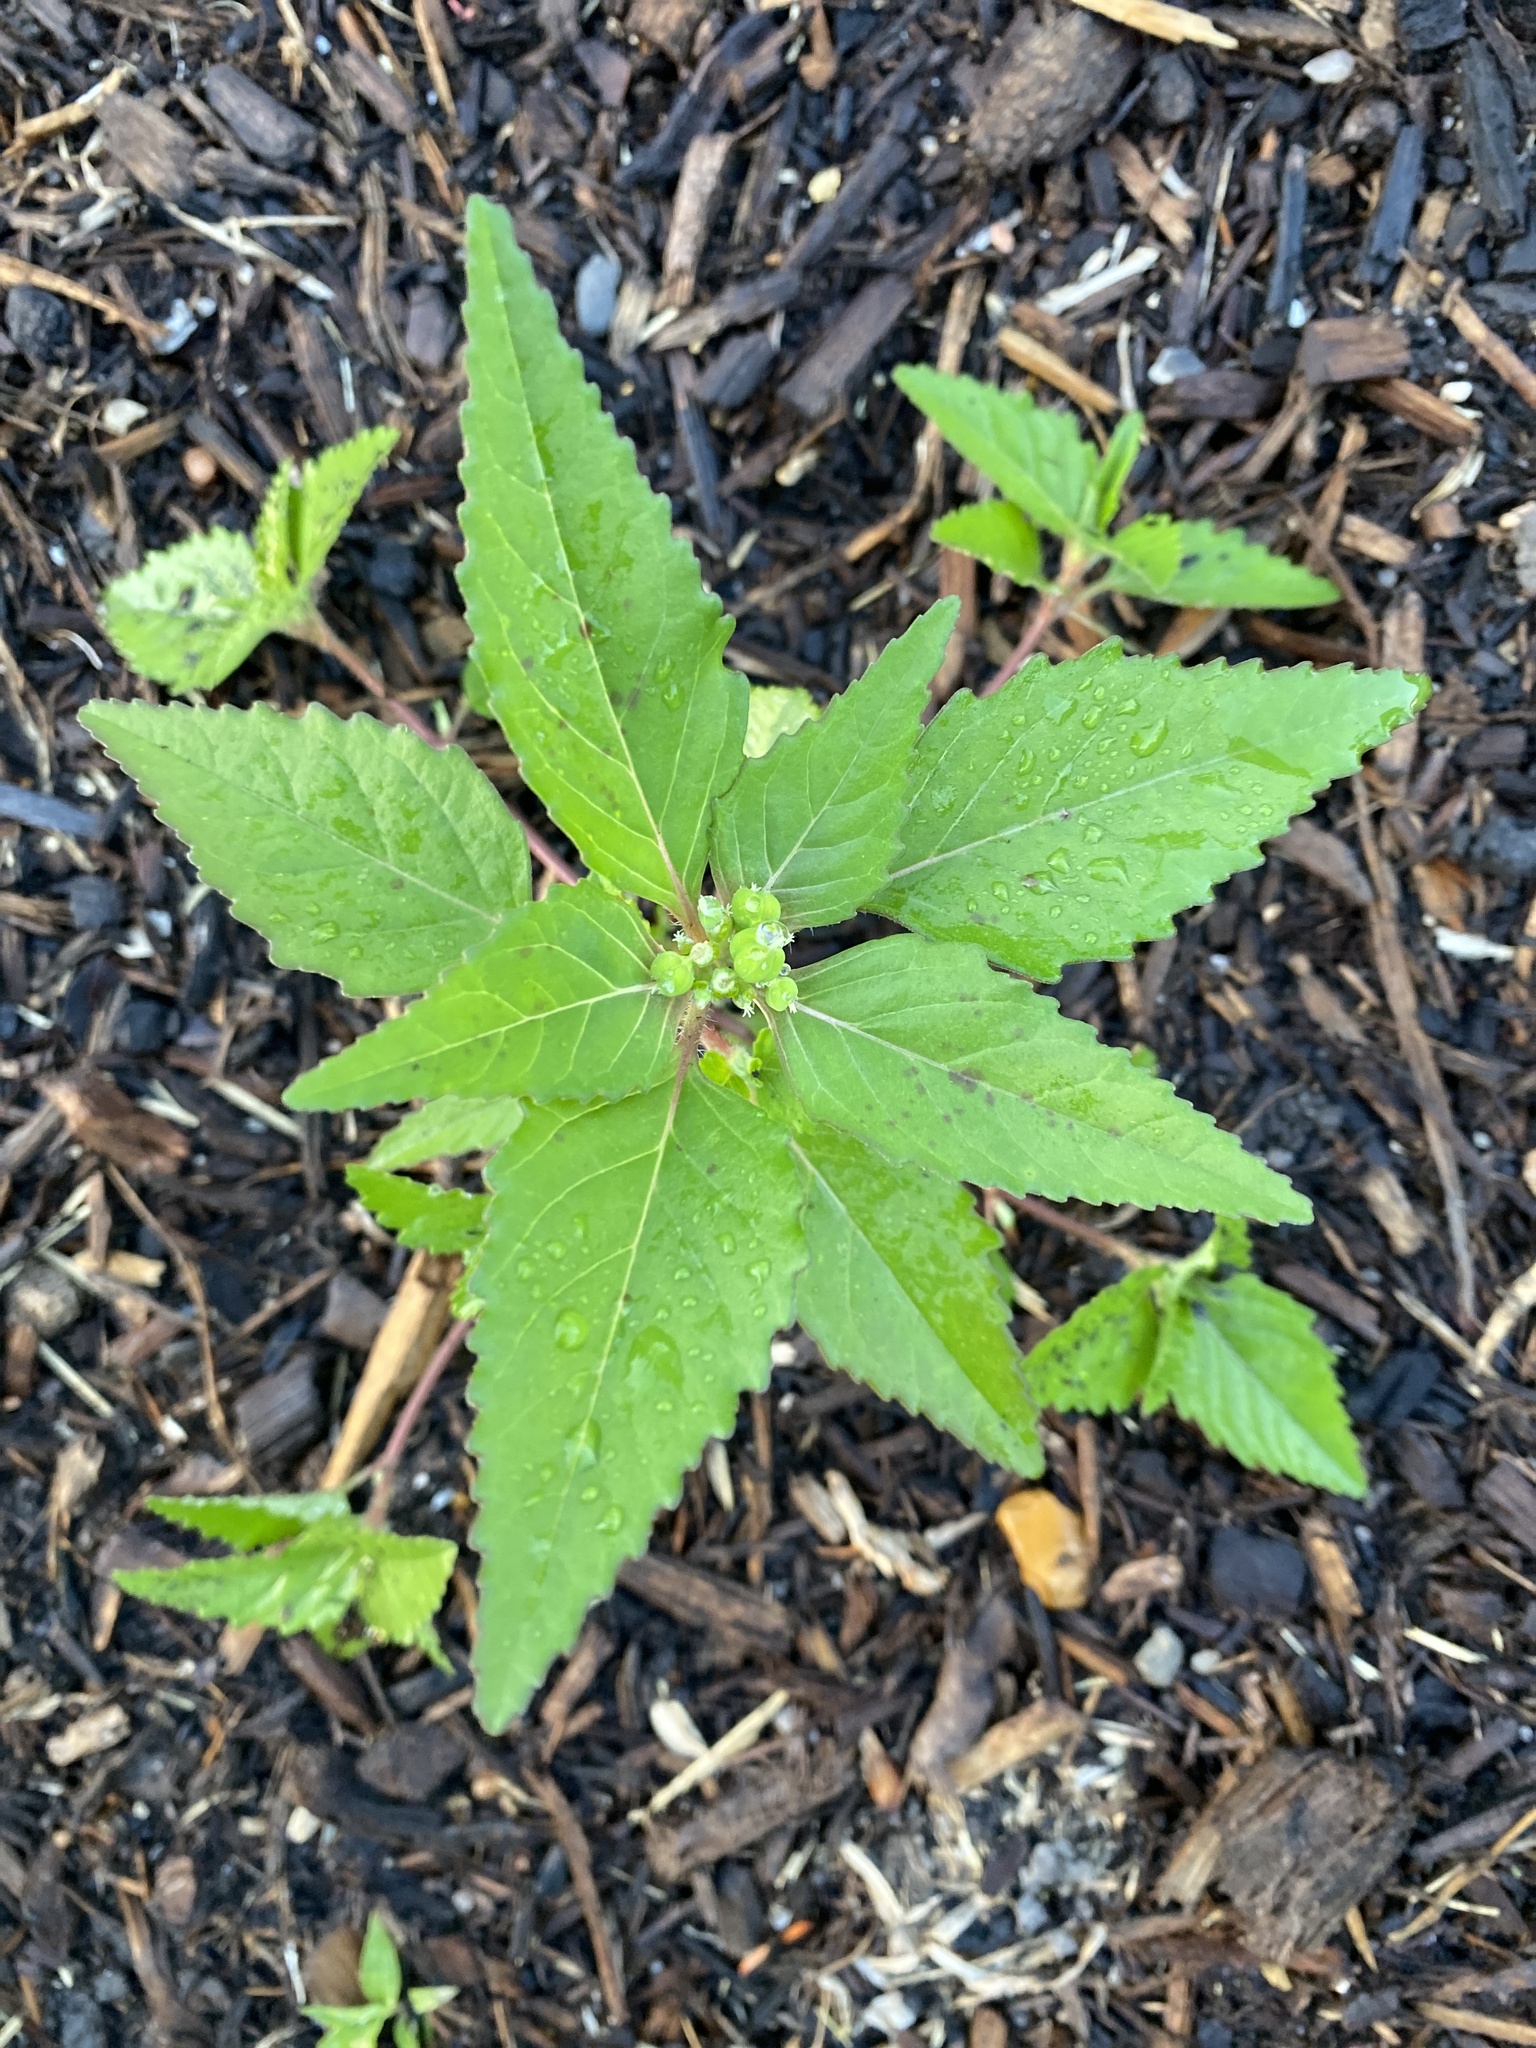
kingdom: Plantae
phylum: Tracheophyta
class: Magnoliopsida
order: Malpighiales
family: Euphorbiaceae
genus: Euphorbia
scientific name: Euphorbia dentata
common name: Dentate spurge
